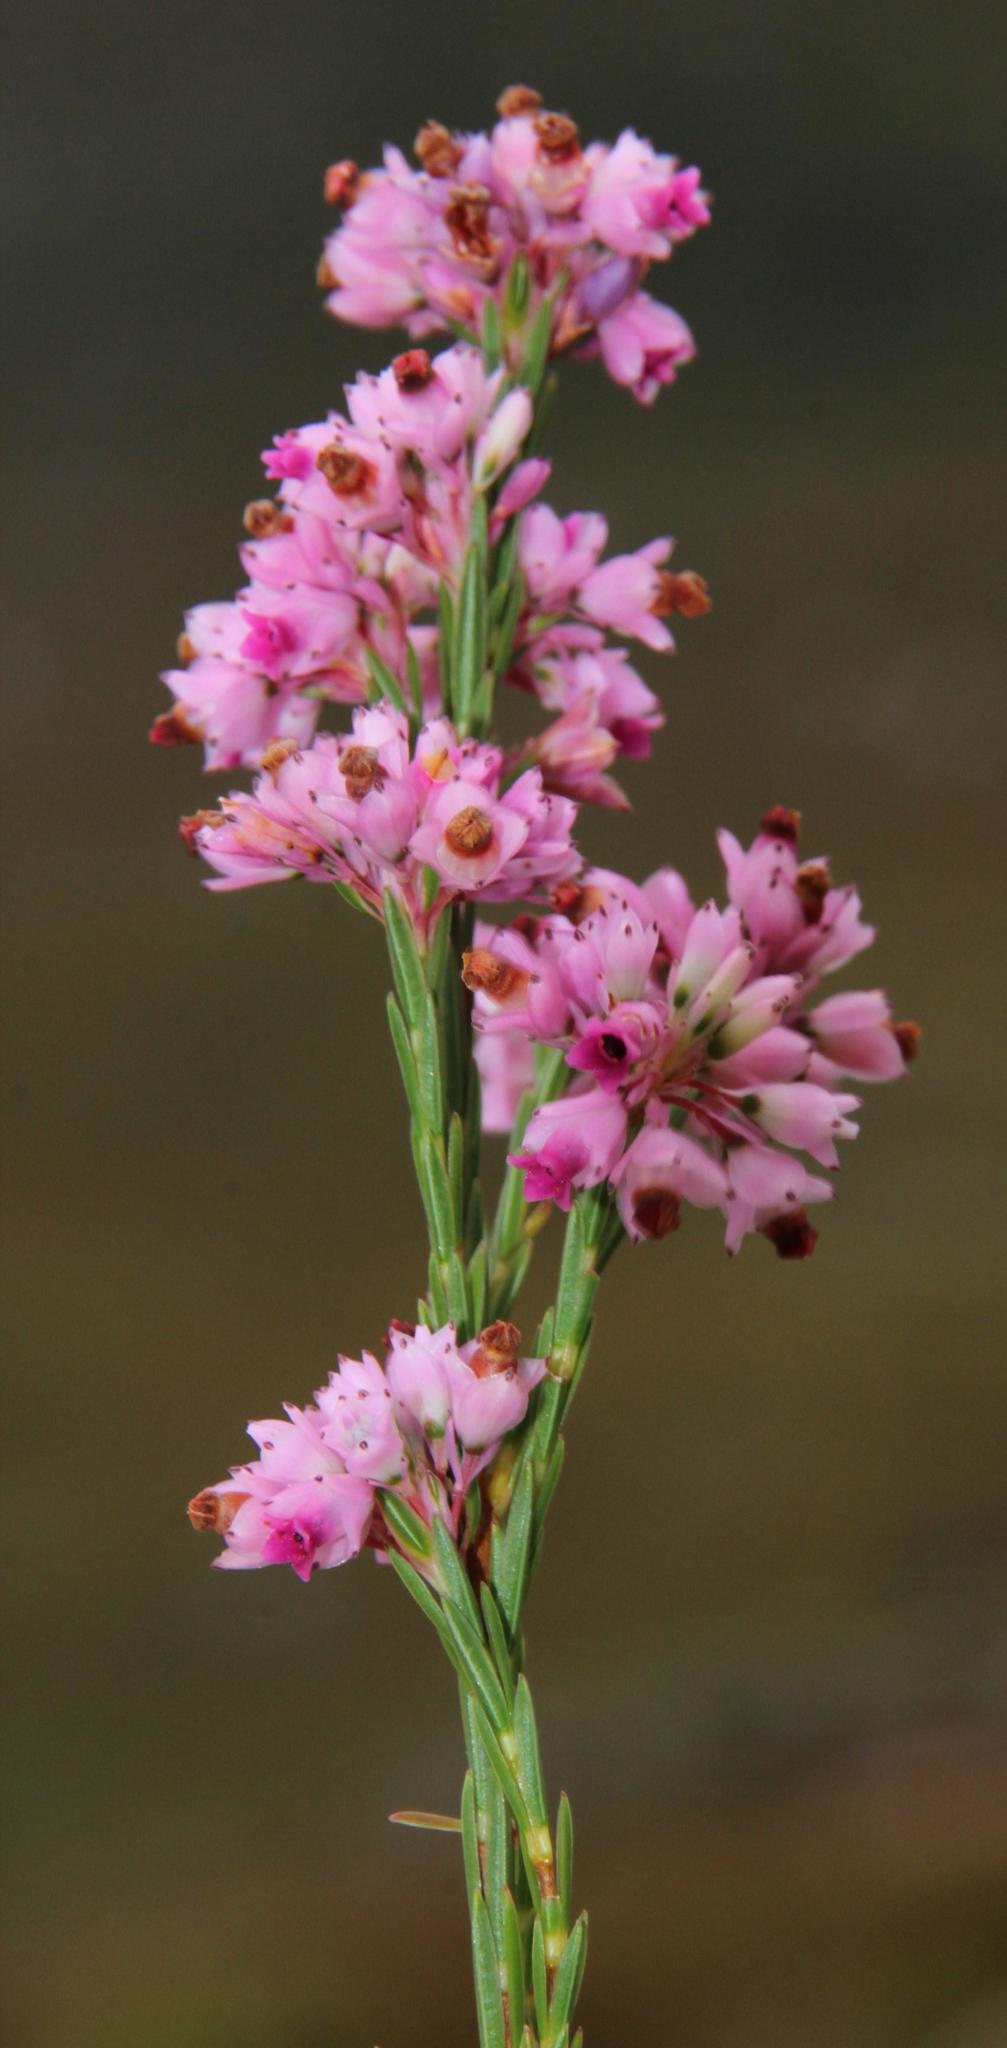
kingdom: Plantae
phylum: Tracheophyta
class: Magnoliopsida
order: Ericales
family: Ericaceae
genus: Erica
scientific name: Erica corifolia
